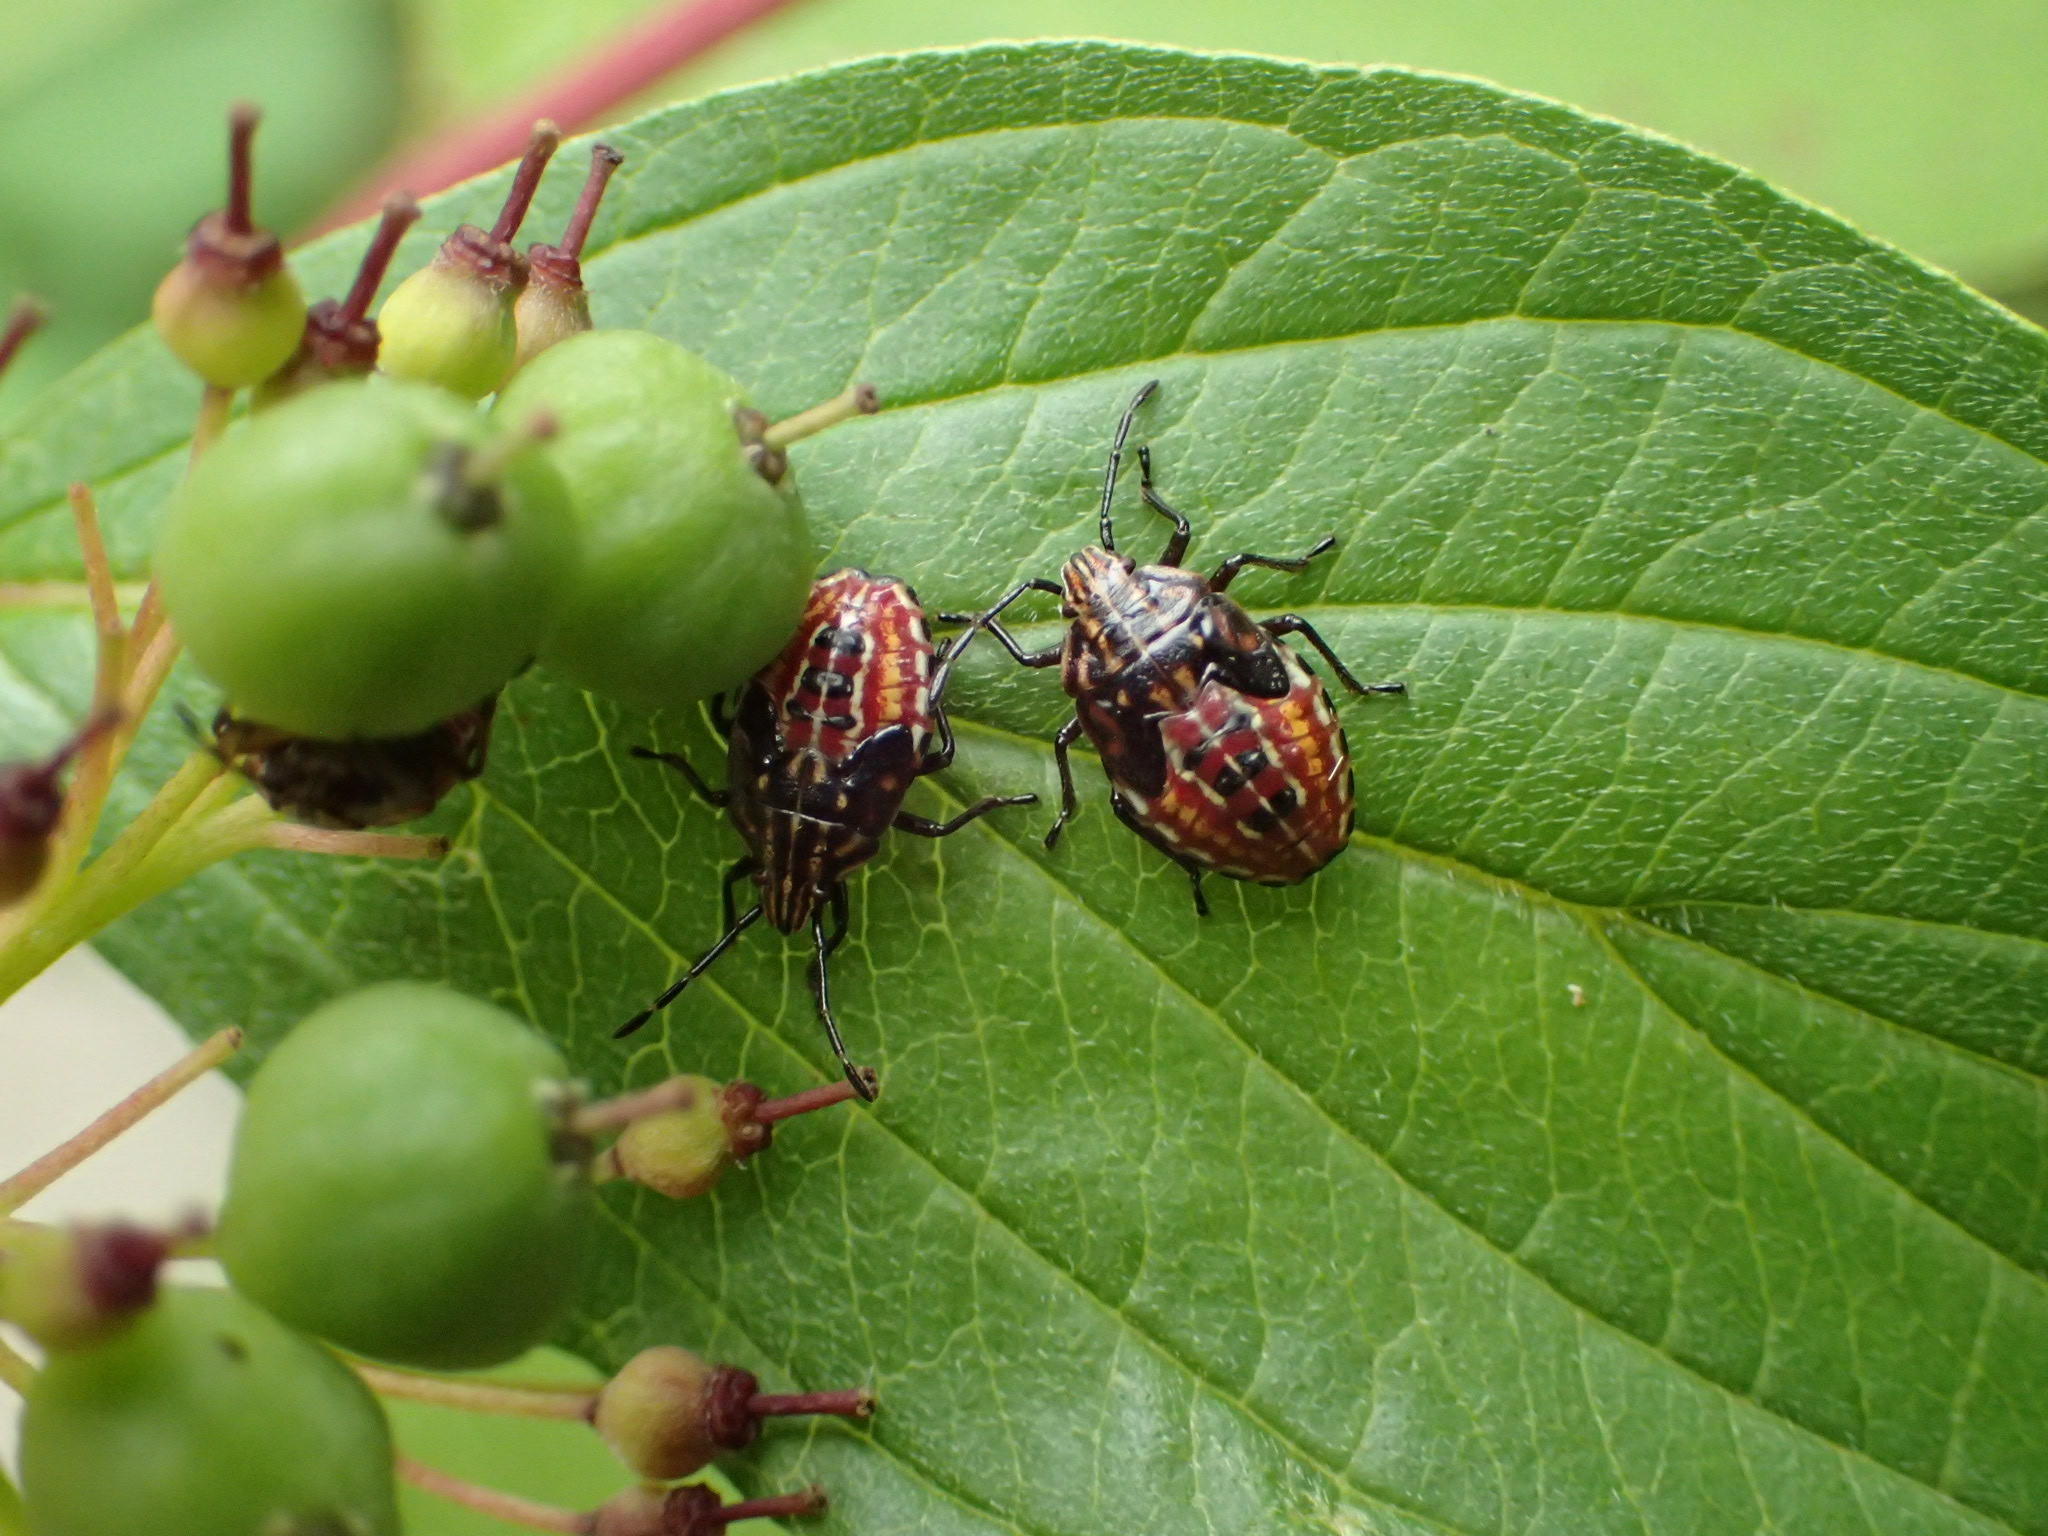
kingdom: Animalia
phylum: Arthropoda
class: Insecta
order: Hemiptera
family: Acanthosomatidae
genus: Elasmucha
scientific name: Elasmucha lateralis
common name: Shield bug
